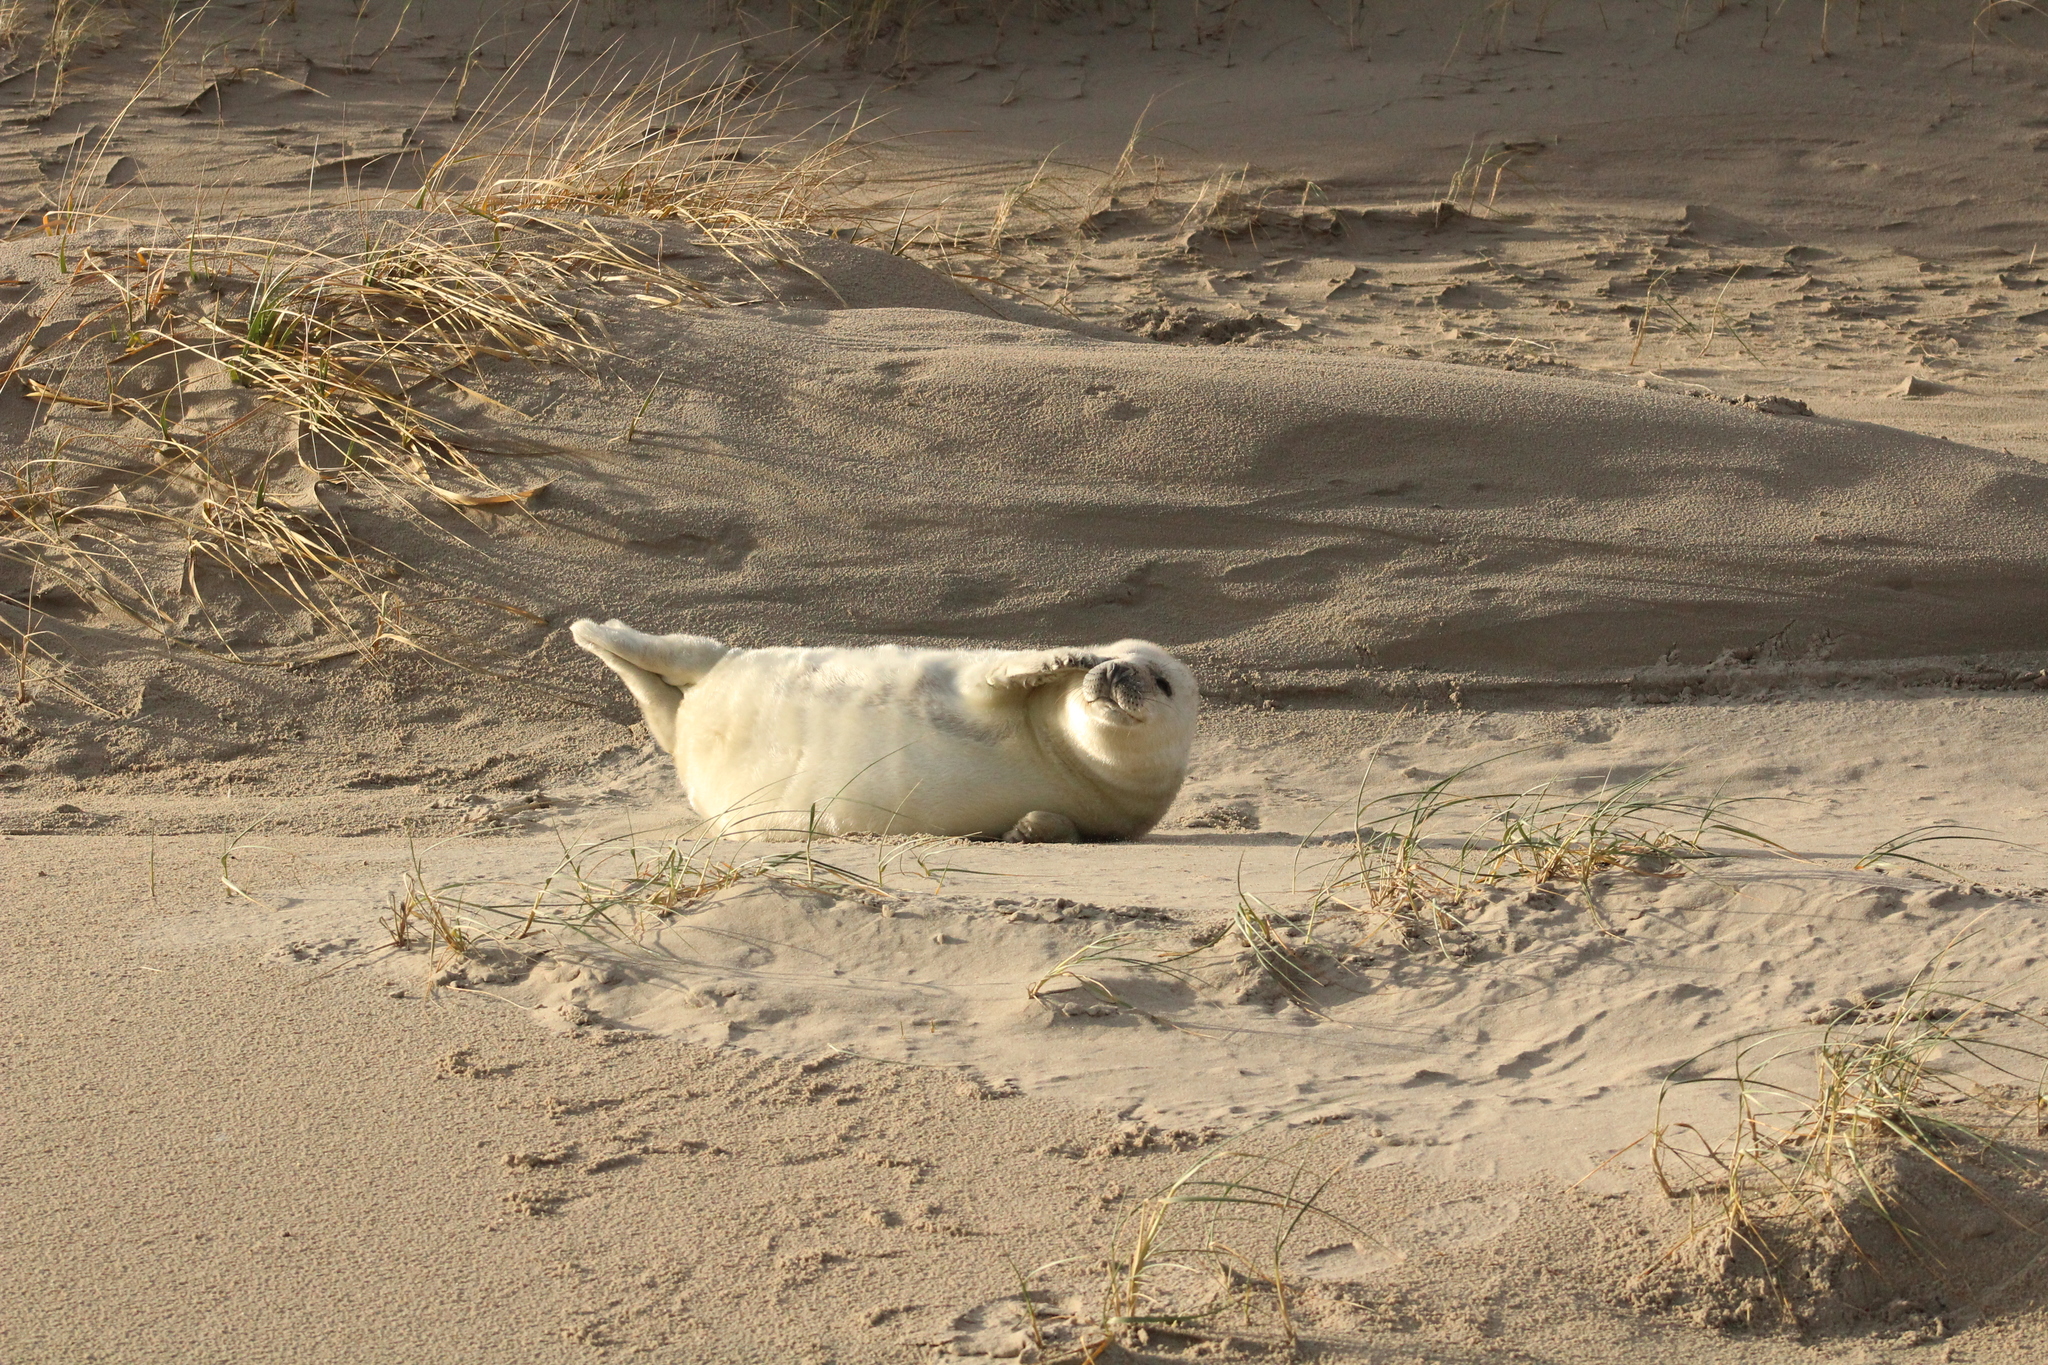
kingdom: Animalia
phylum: Chordata
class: Mammalia
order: Carnivora
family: Phocidae
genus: Halichoerus
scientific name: Halichoerus grypus
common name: Grey seal
